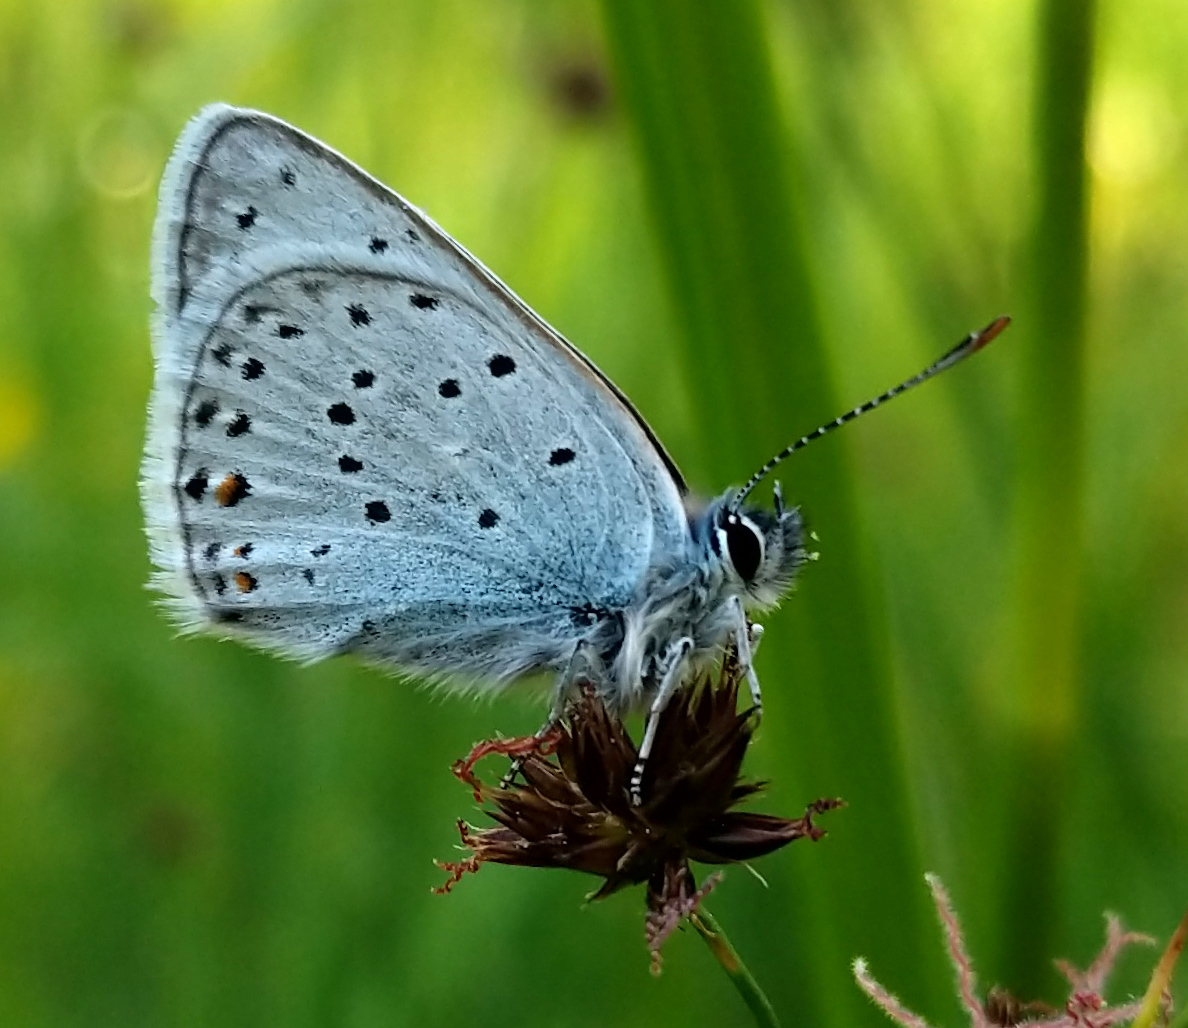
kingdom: Animalia
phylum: Arthropoda
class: Insecta
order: Lepidoptera
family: Lycaenidae
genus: Icaricia
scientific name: Icaricia saepiolus
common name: Greenish blue
